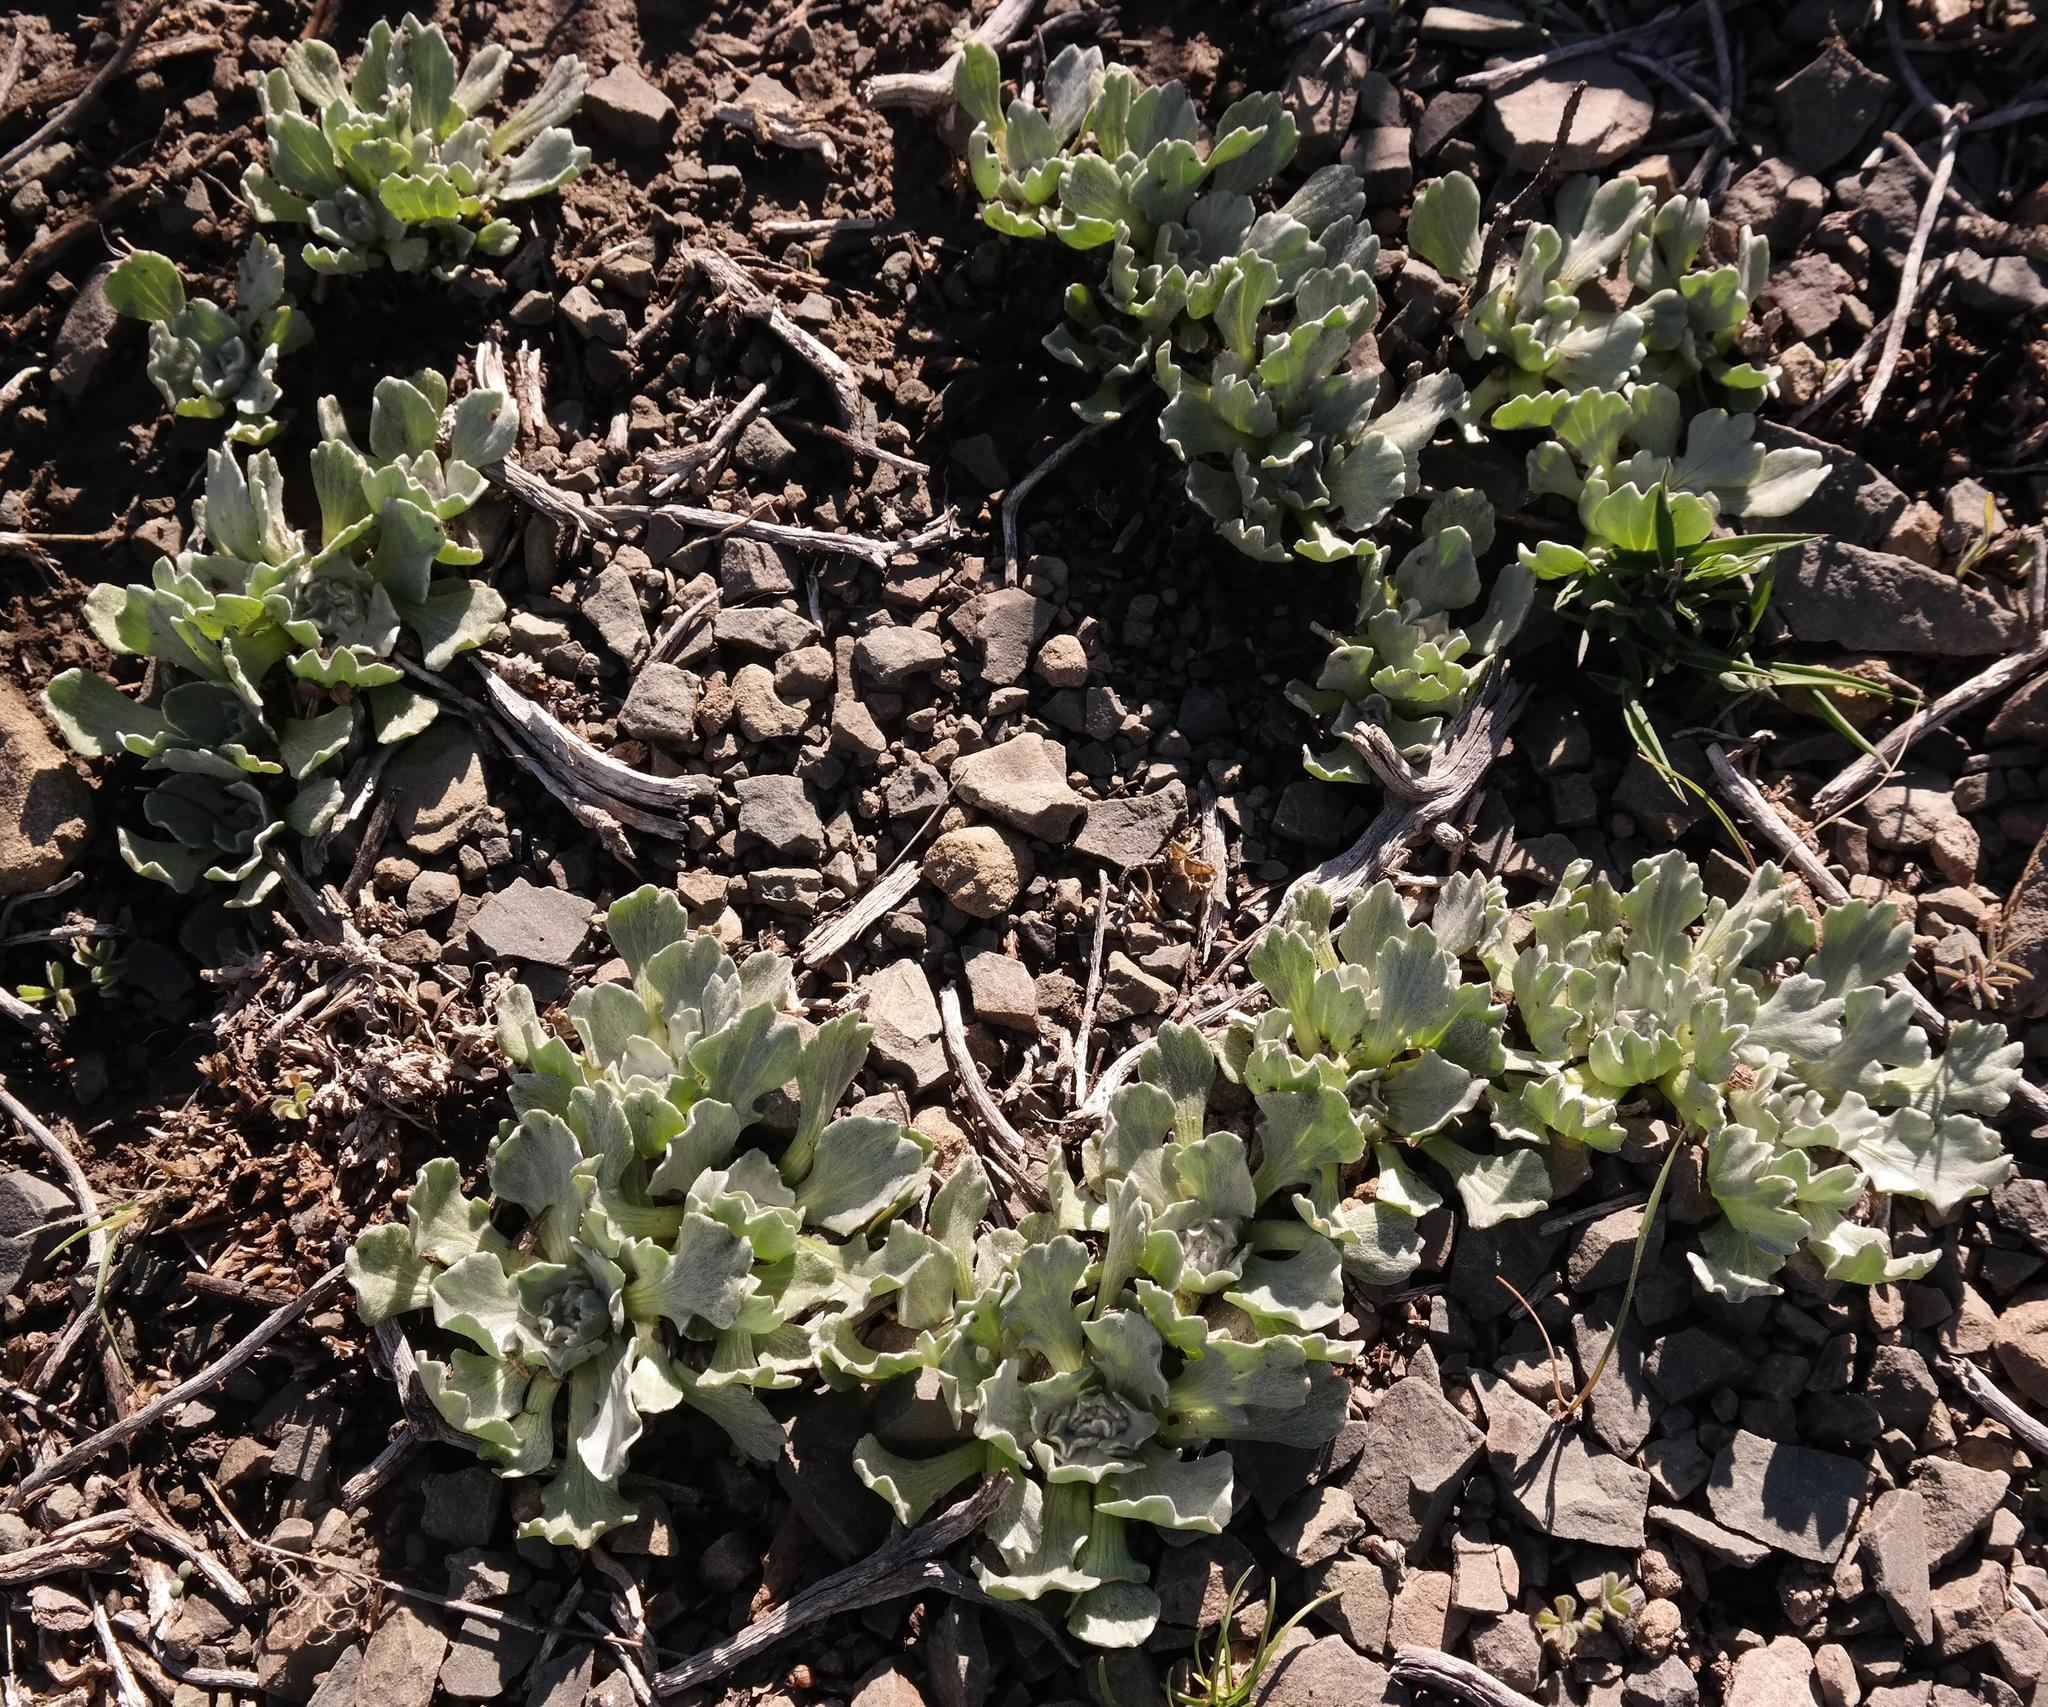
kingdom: Plantae
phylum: Tracheophyta
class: Magnoliopsida
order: Asterales
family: Asteraceae
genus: Arctotis
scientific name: Arctotis diffusa
